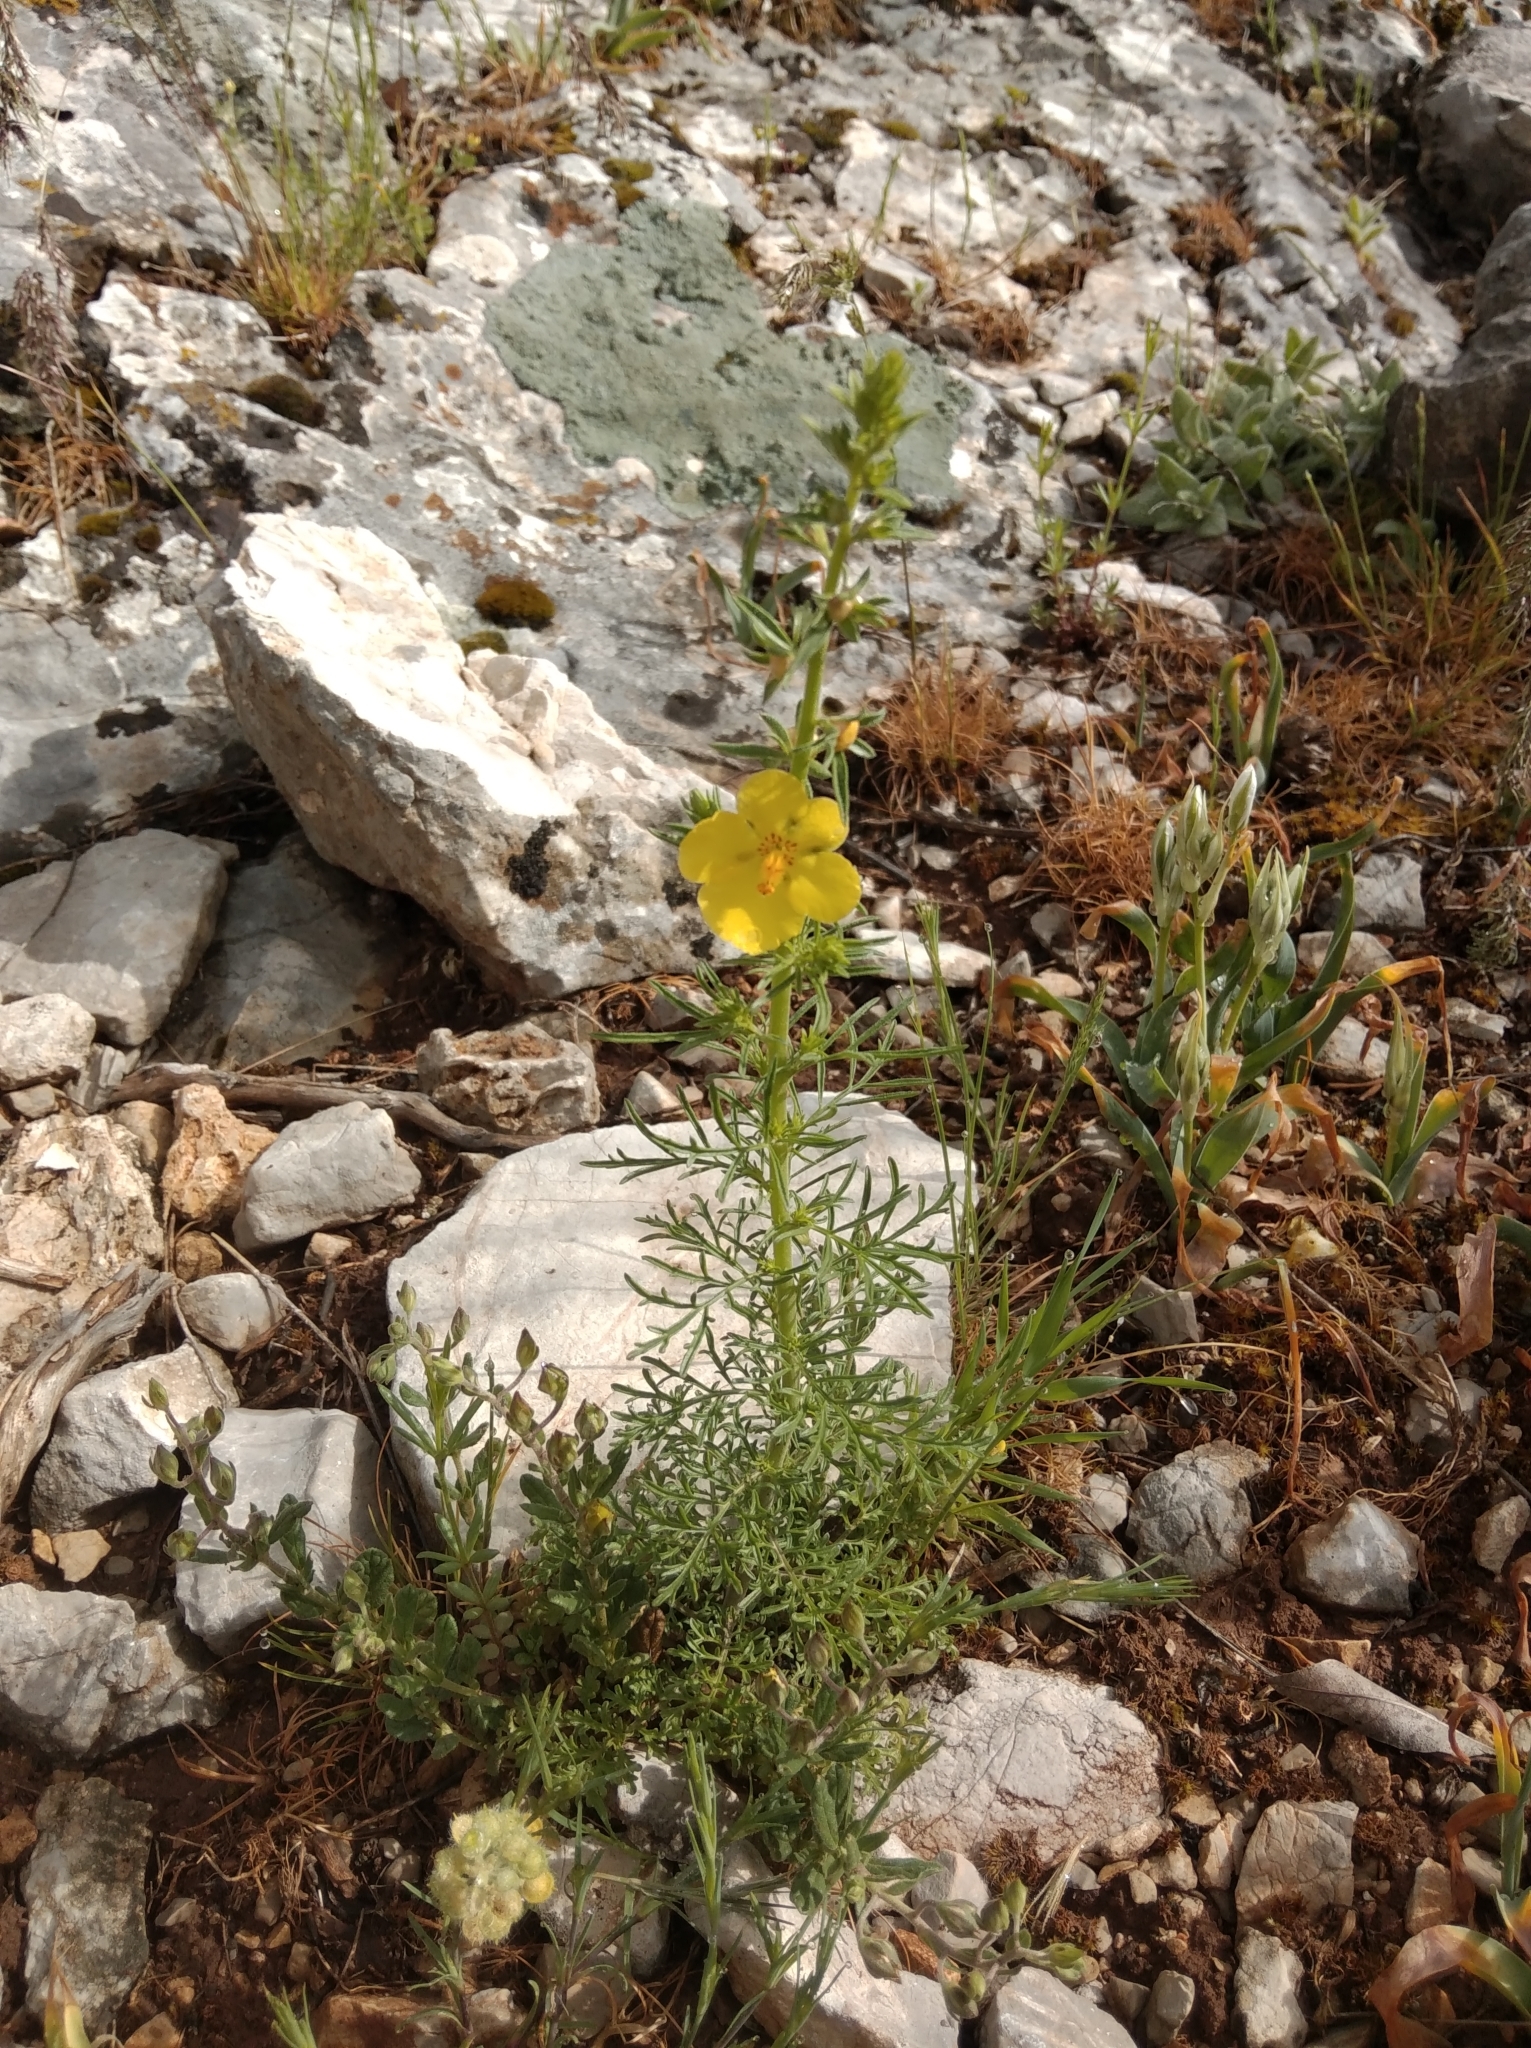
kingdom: Plantae
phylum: Tracheophyta
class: Magnoliopsida
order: Lamiales
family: Scrophulariaceae
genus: Verbascum
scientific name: Verbascum orientale
